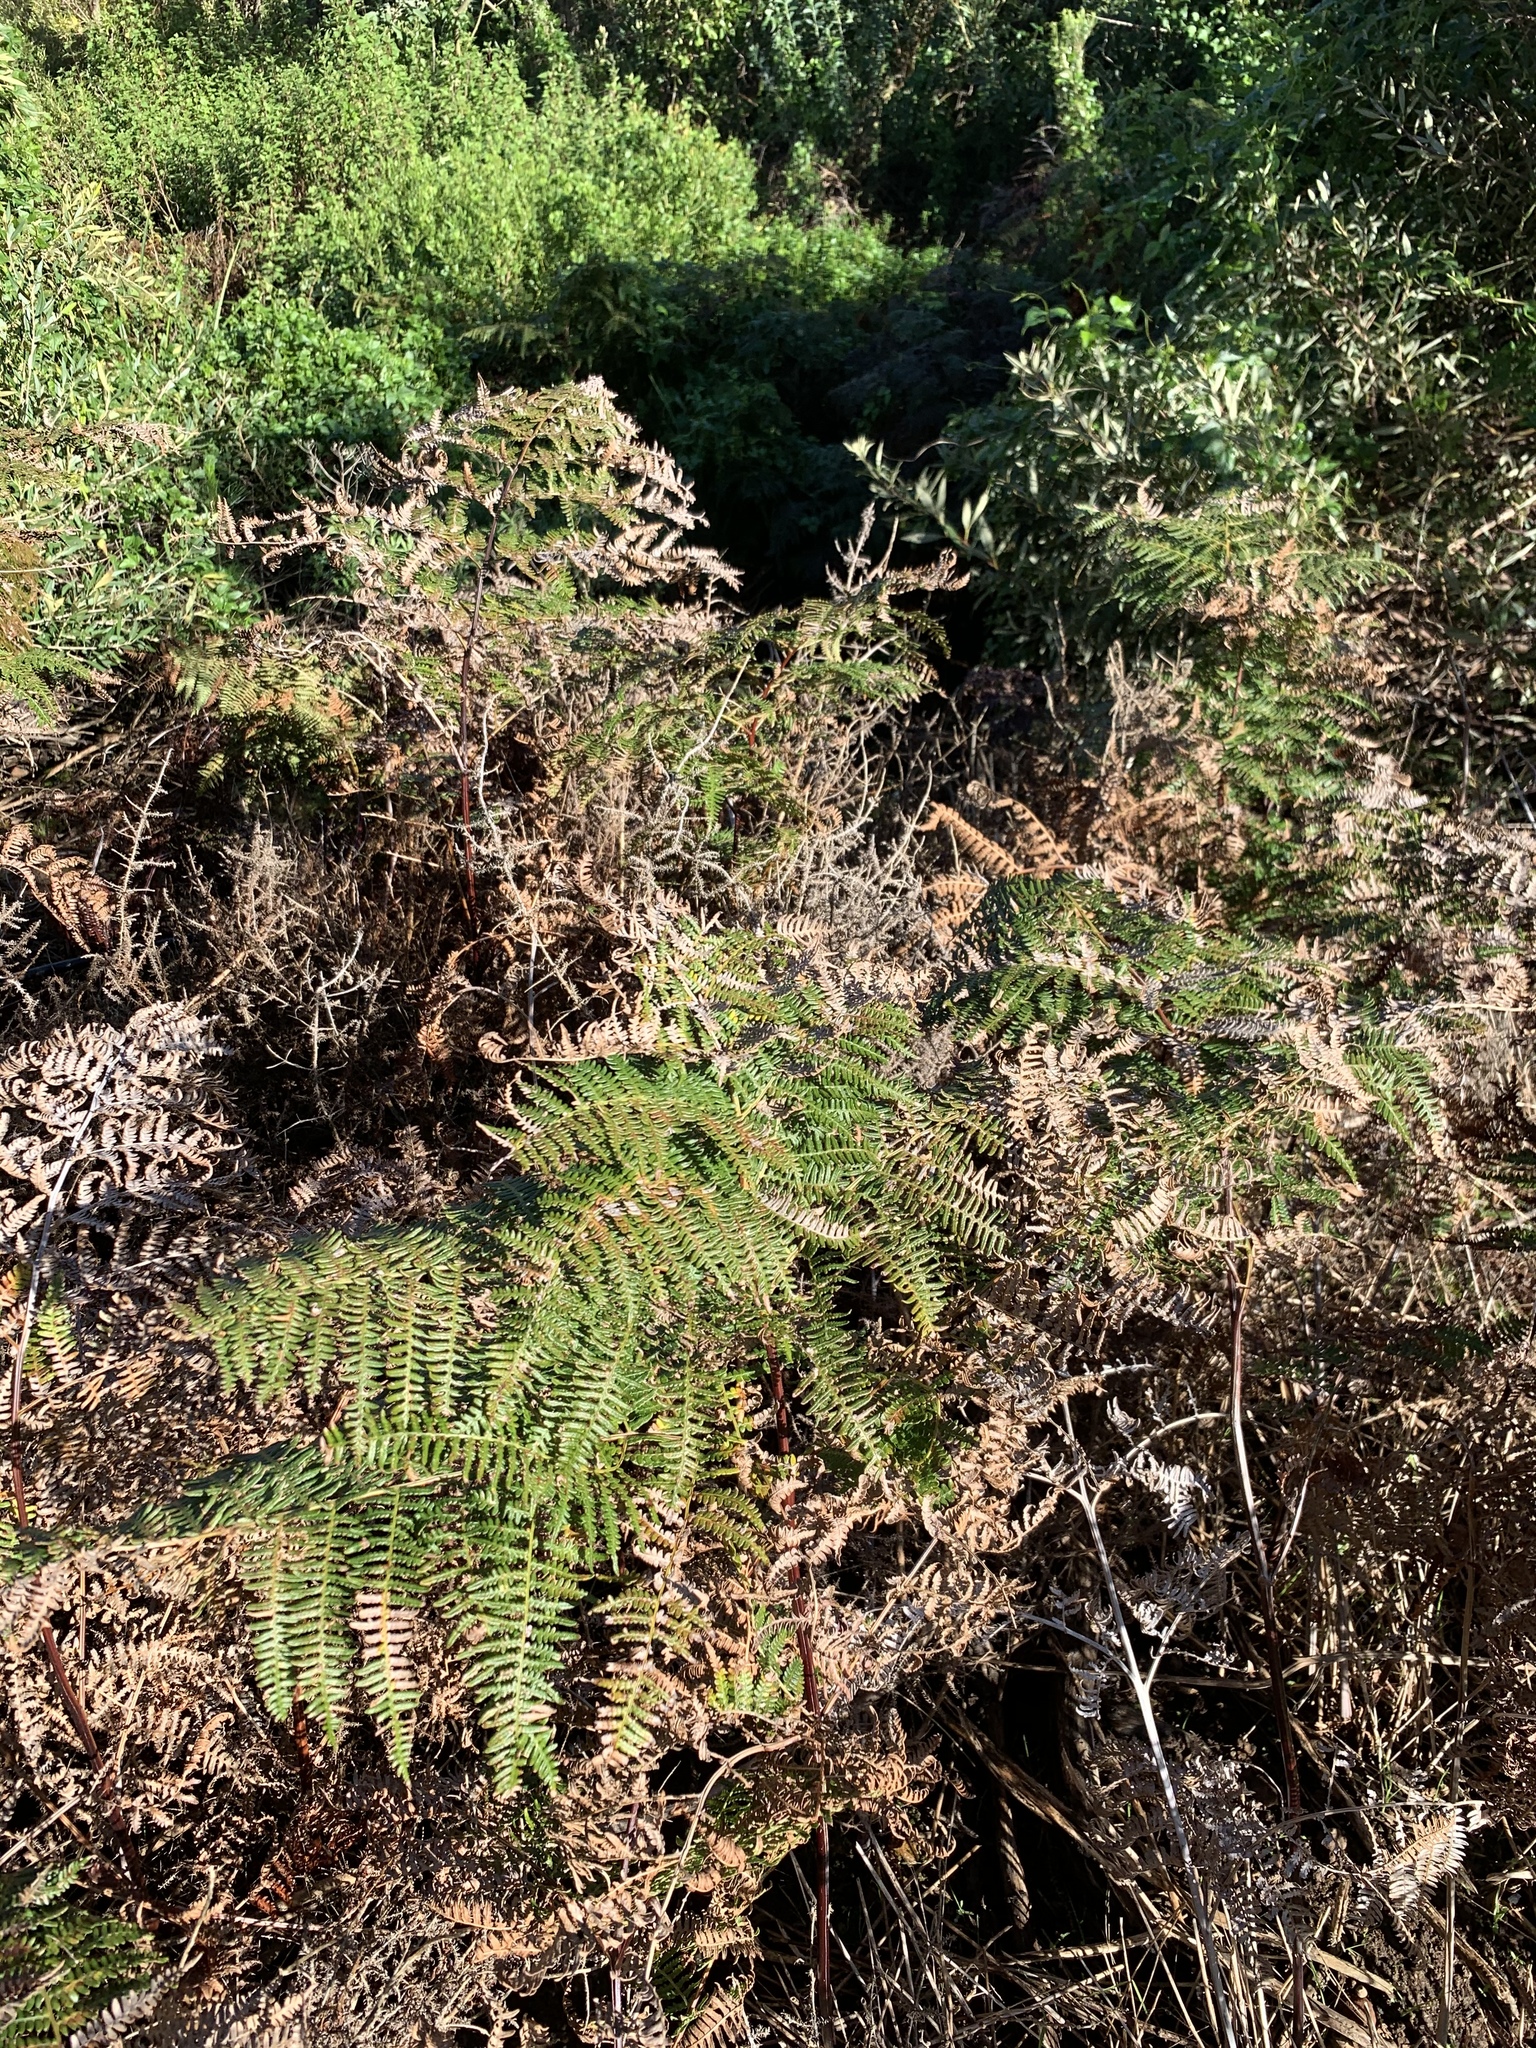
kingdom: Plantae
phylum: Tracheophyta
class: Polypodiopsida
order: Polypodiales
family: Dennstaedtiaceae
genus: Pteridium
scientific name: Pteridium aquilinum
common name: Bracken
